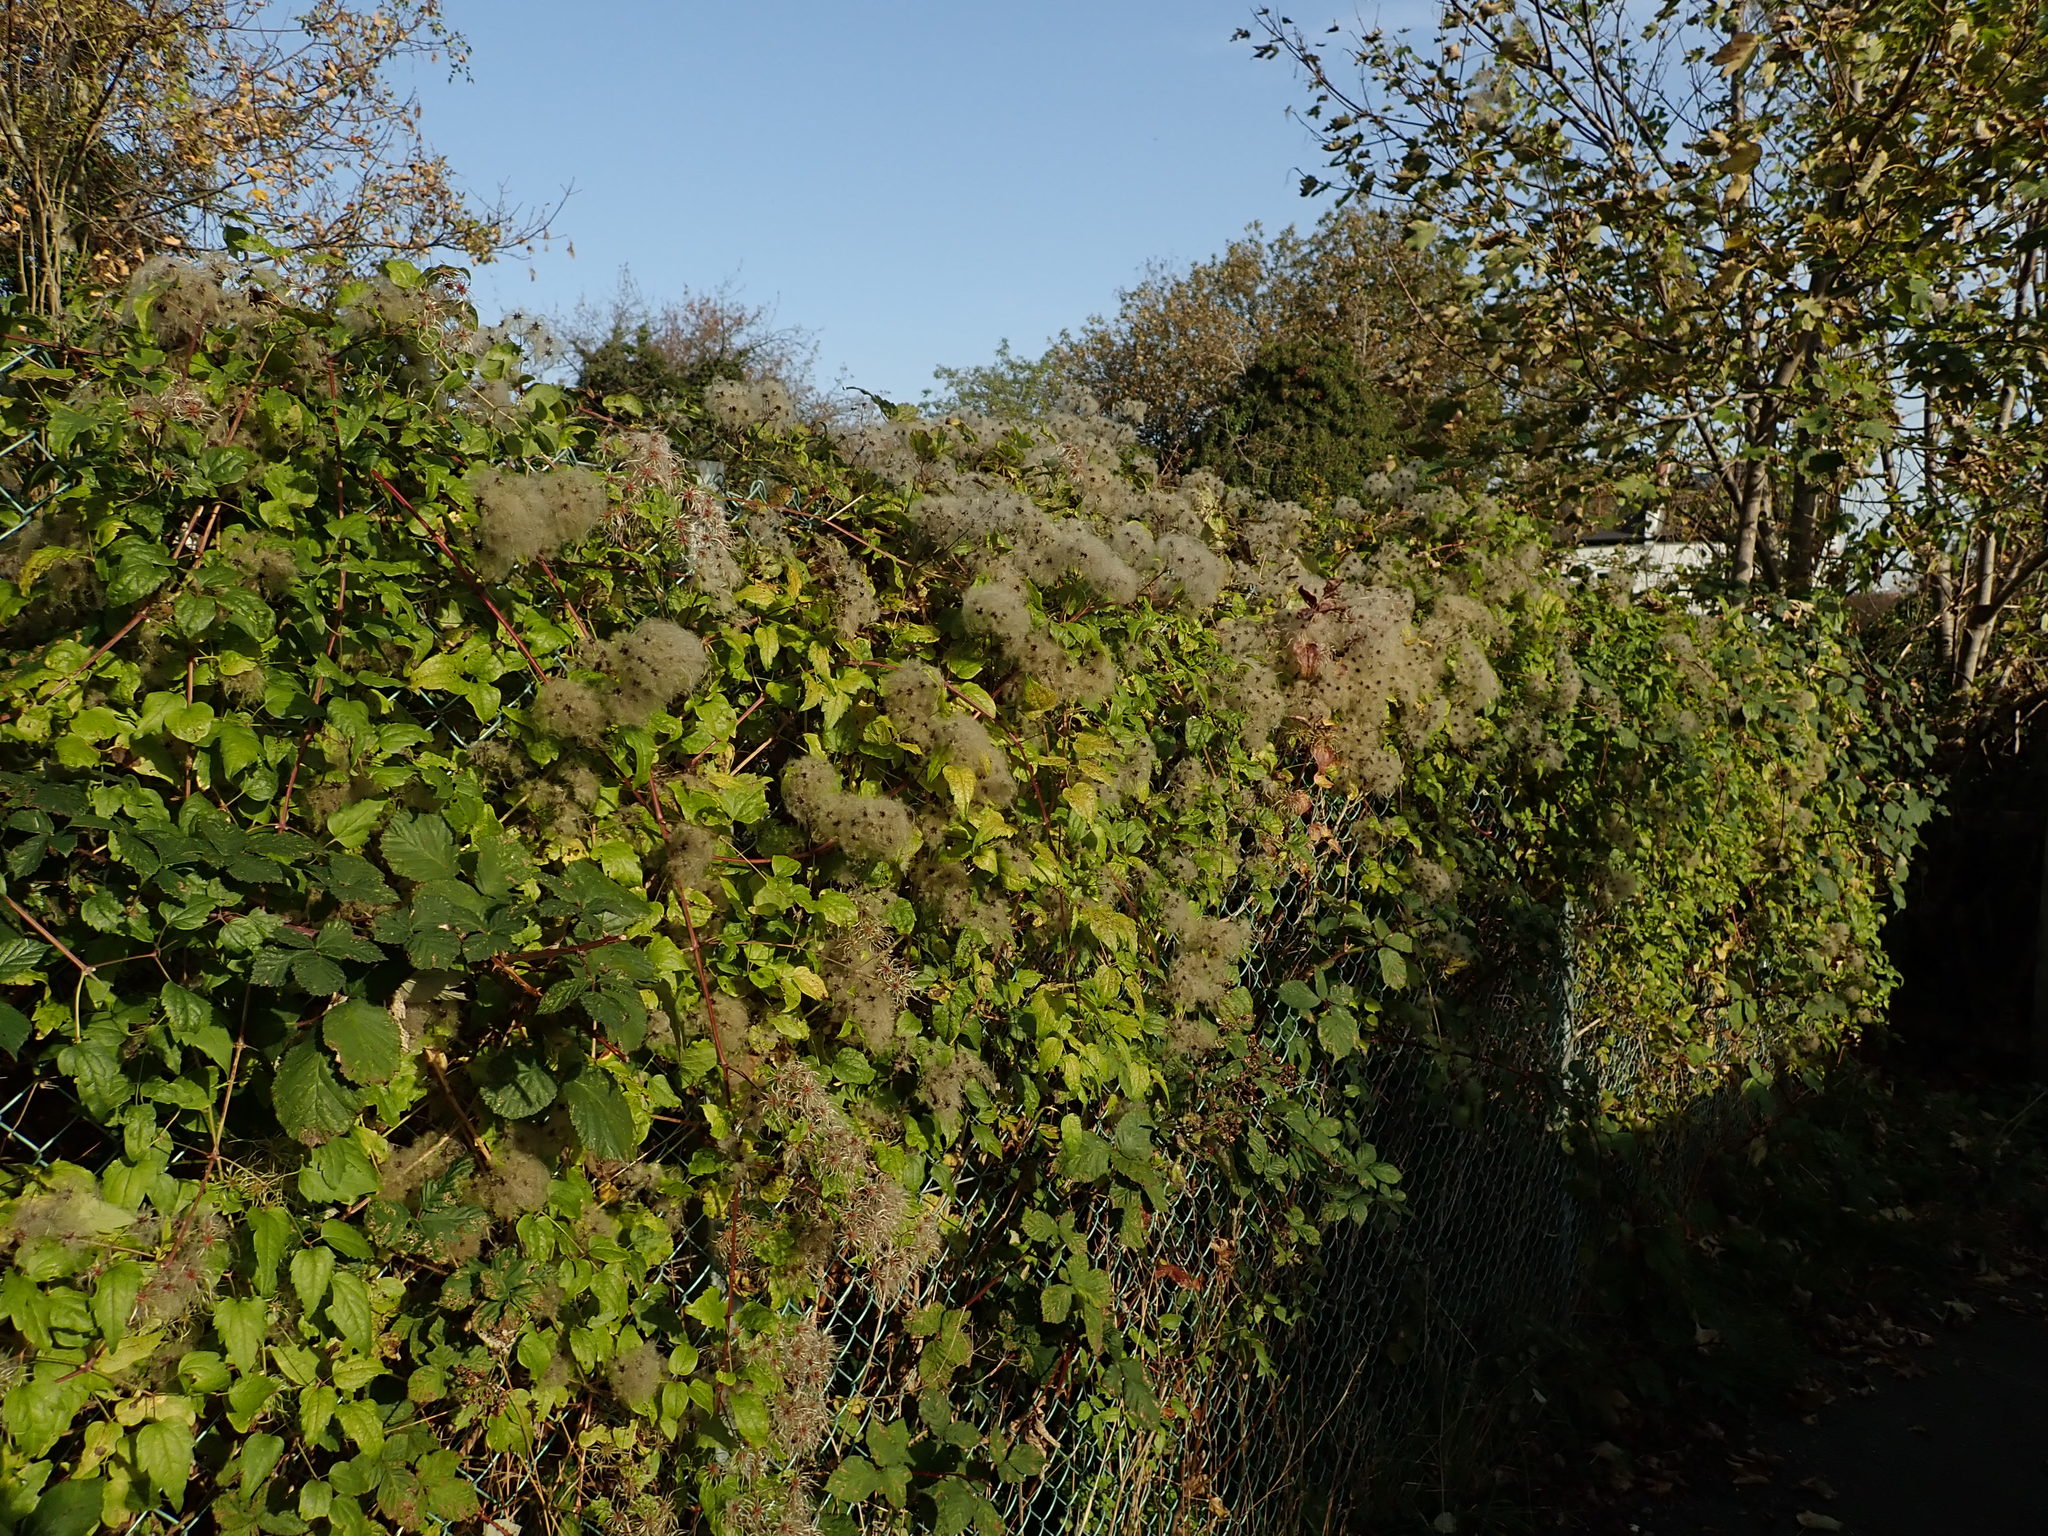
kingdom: Plantae
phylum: Tracheophyta
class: Magnoliopsida
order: Ranunculales
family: Ranunculaceae
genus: Clematis
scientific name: Clematis vitalba
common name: Evergreen clematis
